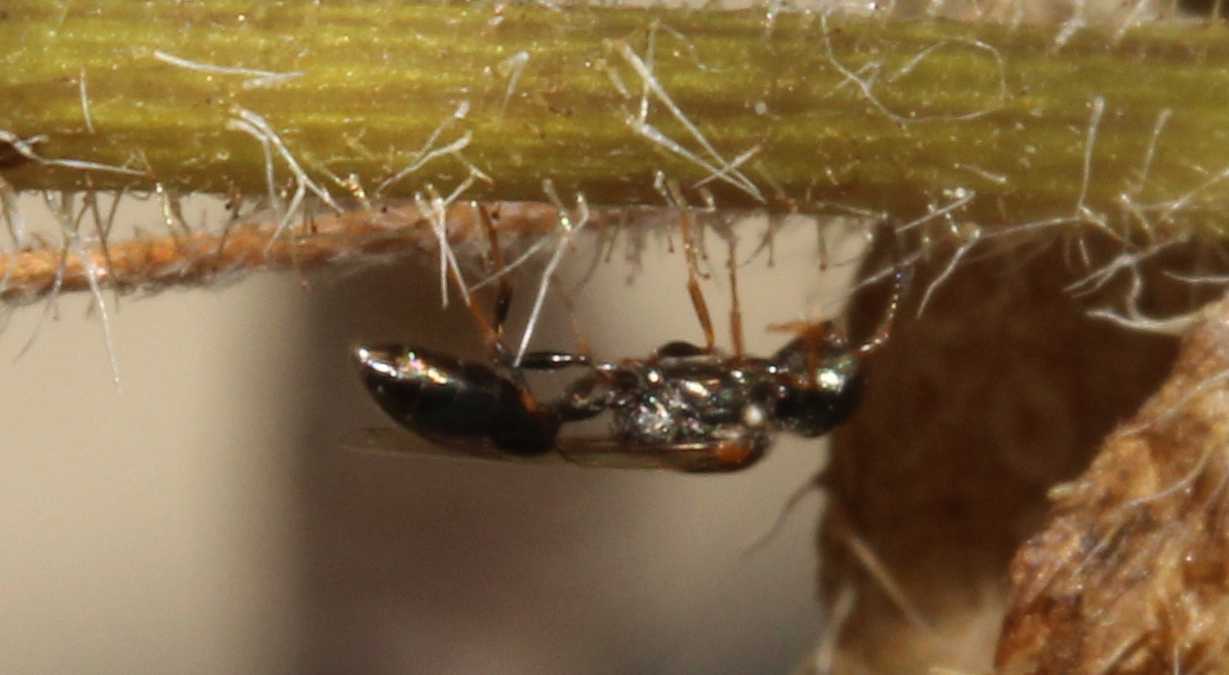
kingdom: Animalia
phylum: Arthropoda
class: Insecta
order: Hymenoptera
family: Crabronidae
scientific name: Crabronidae
